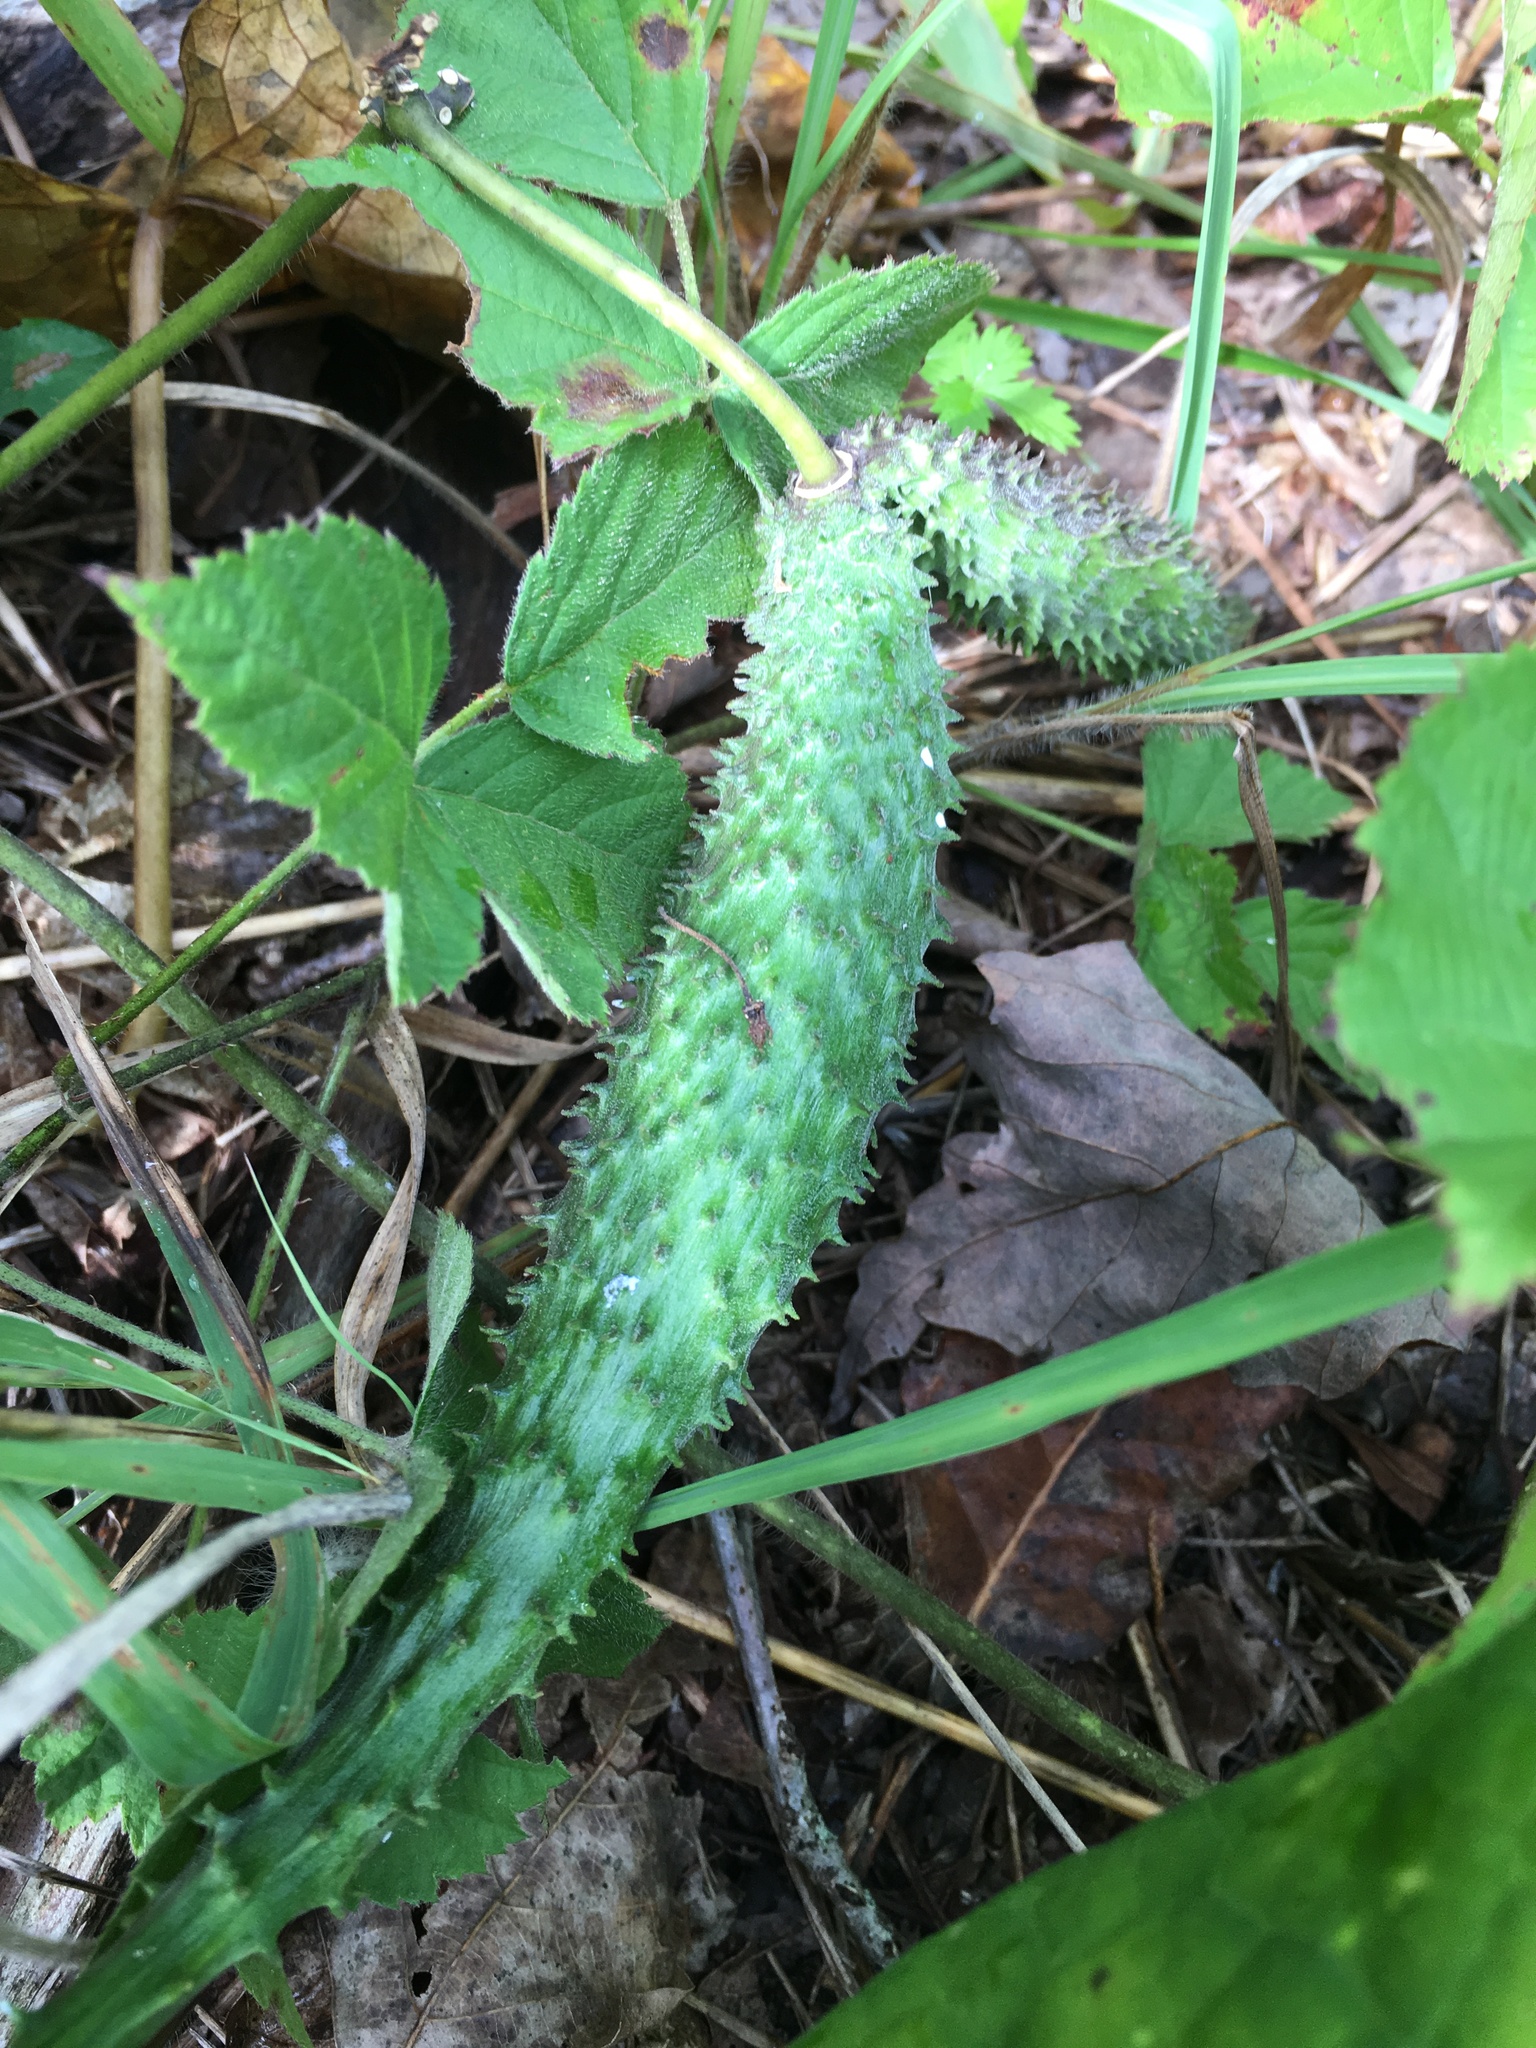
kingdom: Plantae
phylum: Tracheophyta
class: Magnoliopsida
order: Gentianales
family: Apocynaceae
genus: Matelea
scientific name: Matelea obliqua
